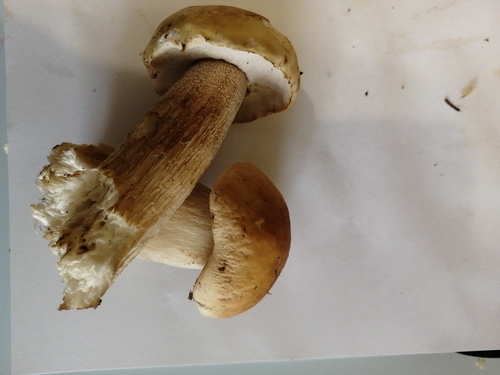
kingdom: Fungi
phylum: Basidiomycota
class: Agaricomycetes
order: Boletales
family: Boletaceae
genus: Boletus
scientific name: Boletus edulis
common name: Cep
